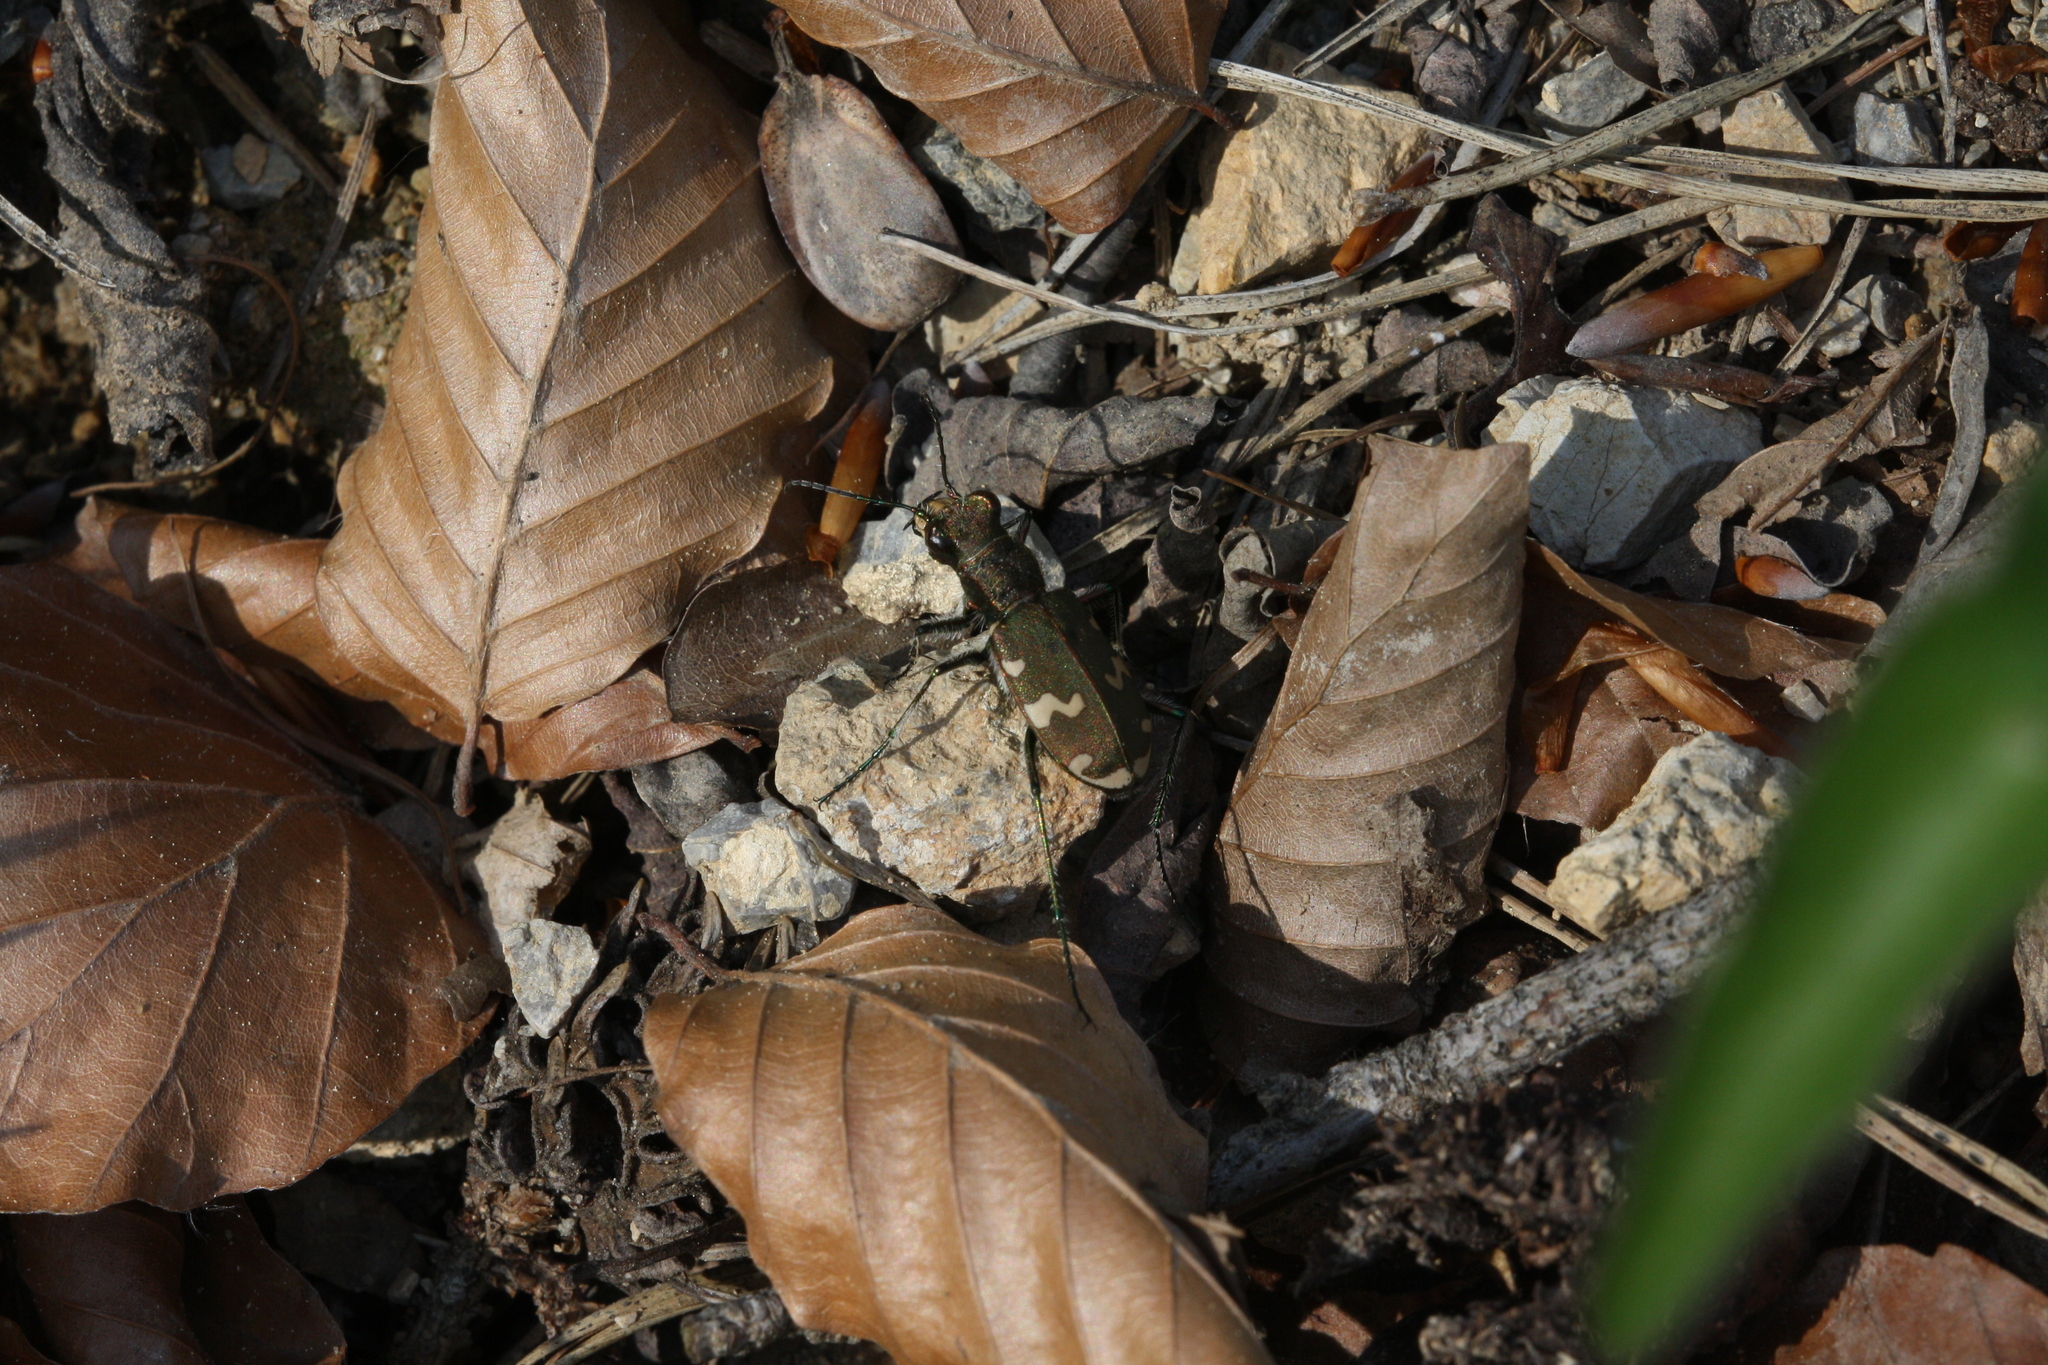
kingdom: Animalia
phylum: Arthropoda
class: Insecta
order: Coleoptera
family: Carabidae
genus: Cicindela
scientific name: Cicindela sylvicola
